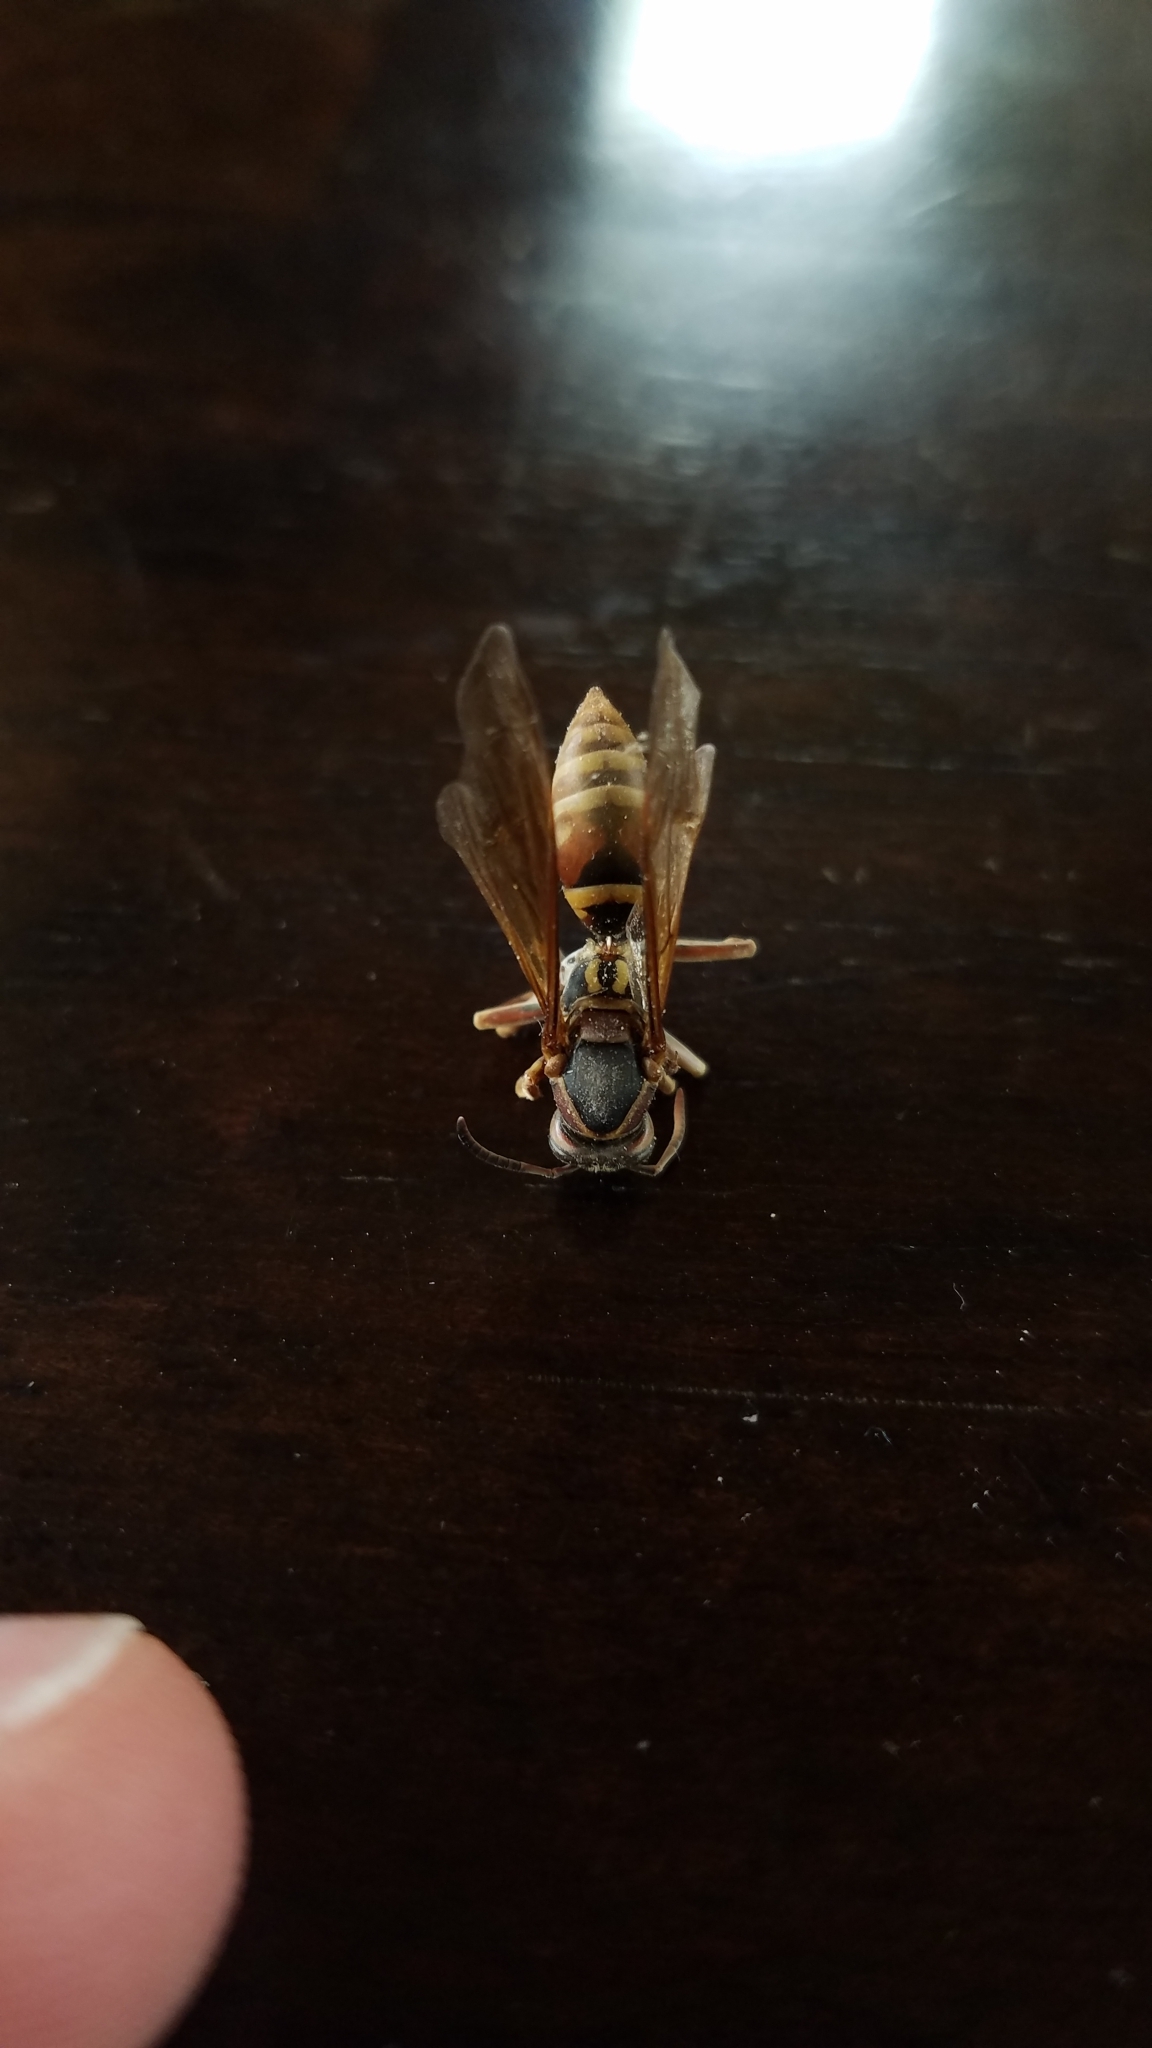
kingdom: Animalia
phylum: Arthropoda
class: Insecta
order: Hymenoptera
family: Eumenidae
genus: Polistes
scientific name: Polistes fuscatus
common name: Dark paper wasp
